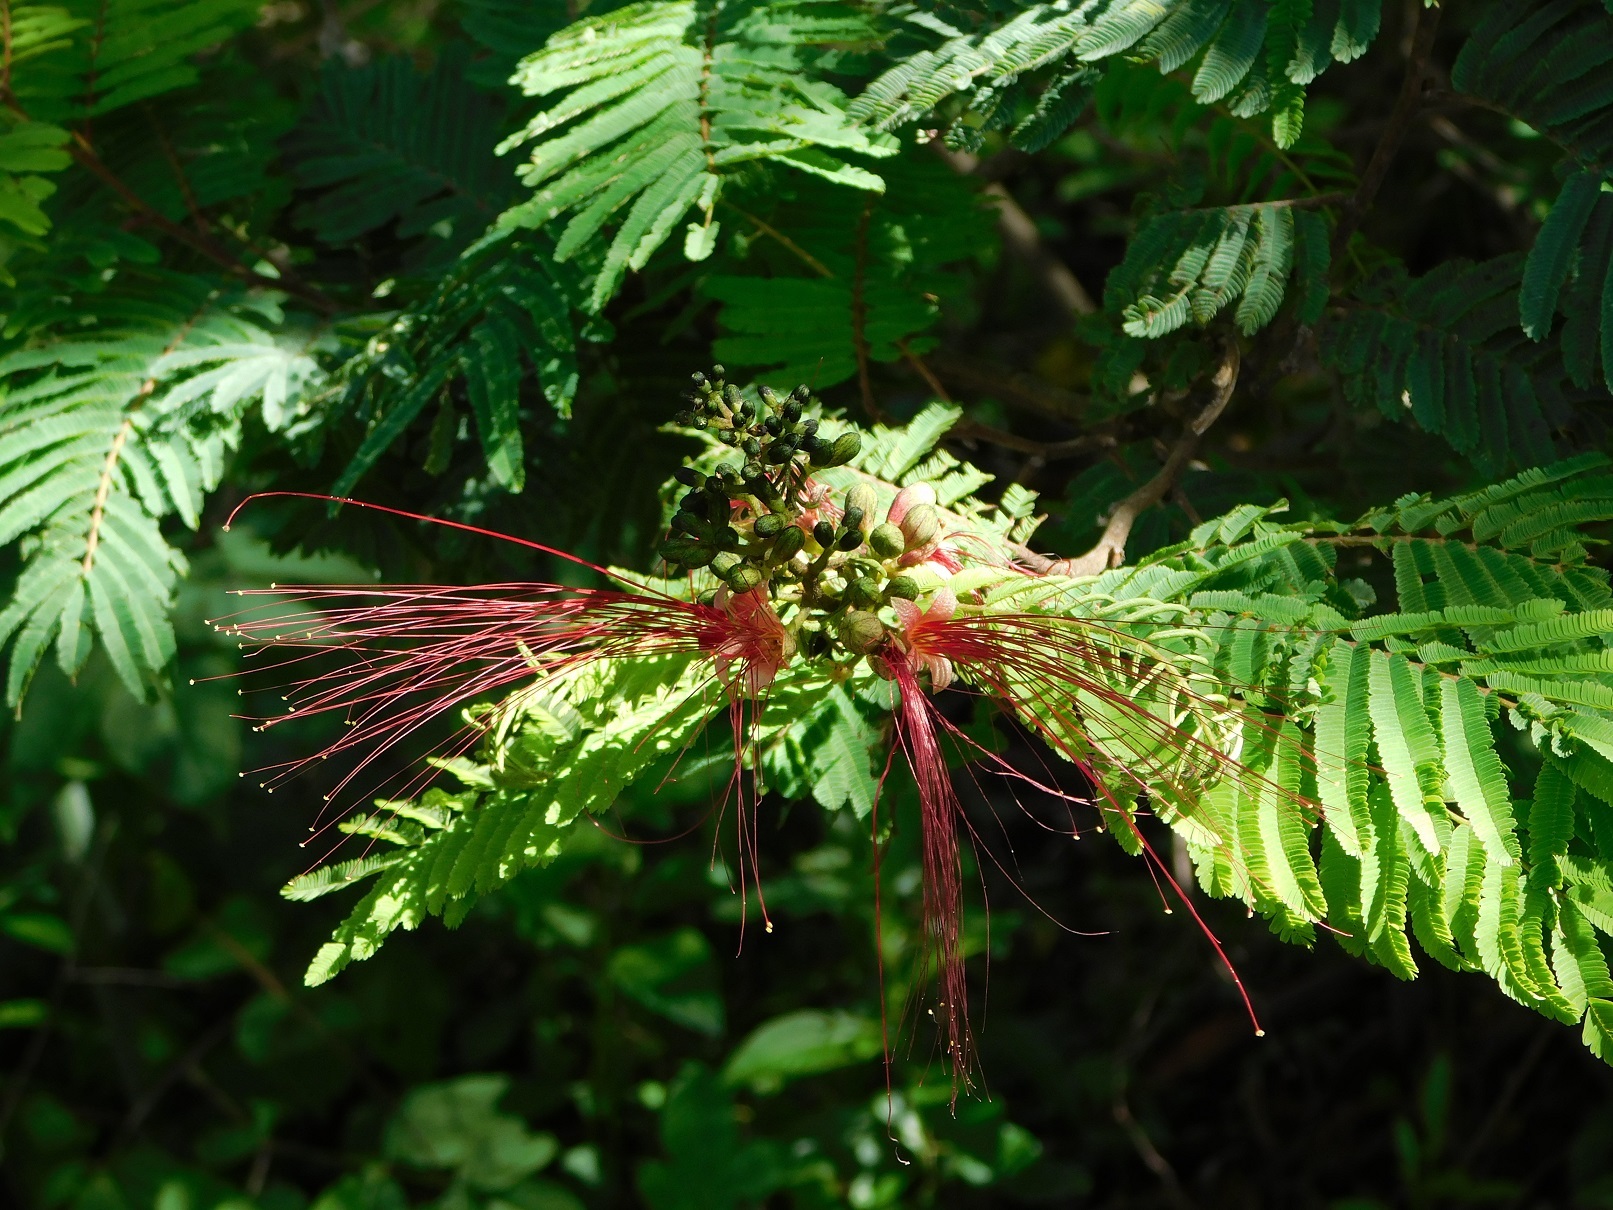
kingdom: Plantae
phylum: Tracheophyta
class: Magnoliopsida
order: Fabales
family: Fabaceae
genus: Calliandra
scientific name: Calliandra houstoniana
